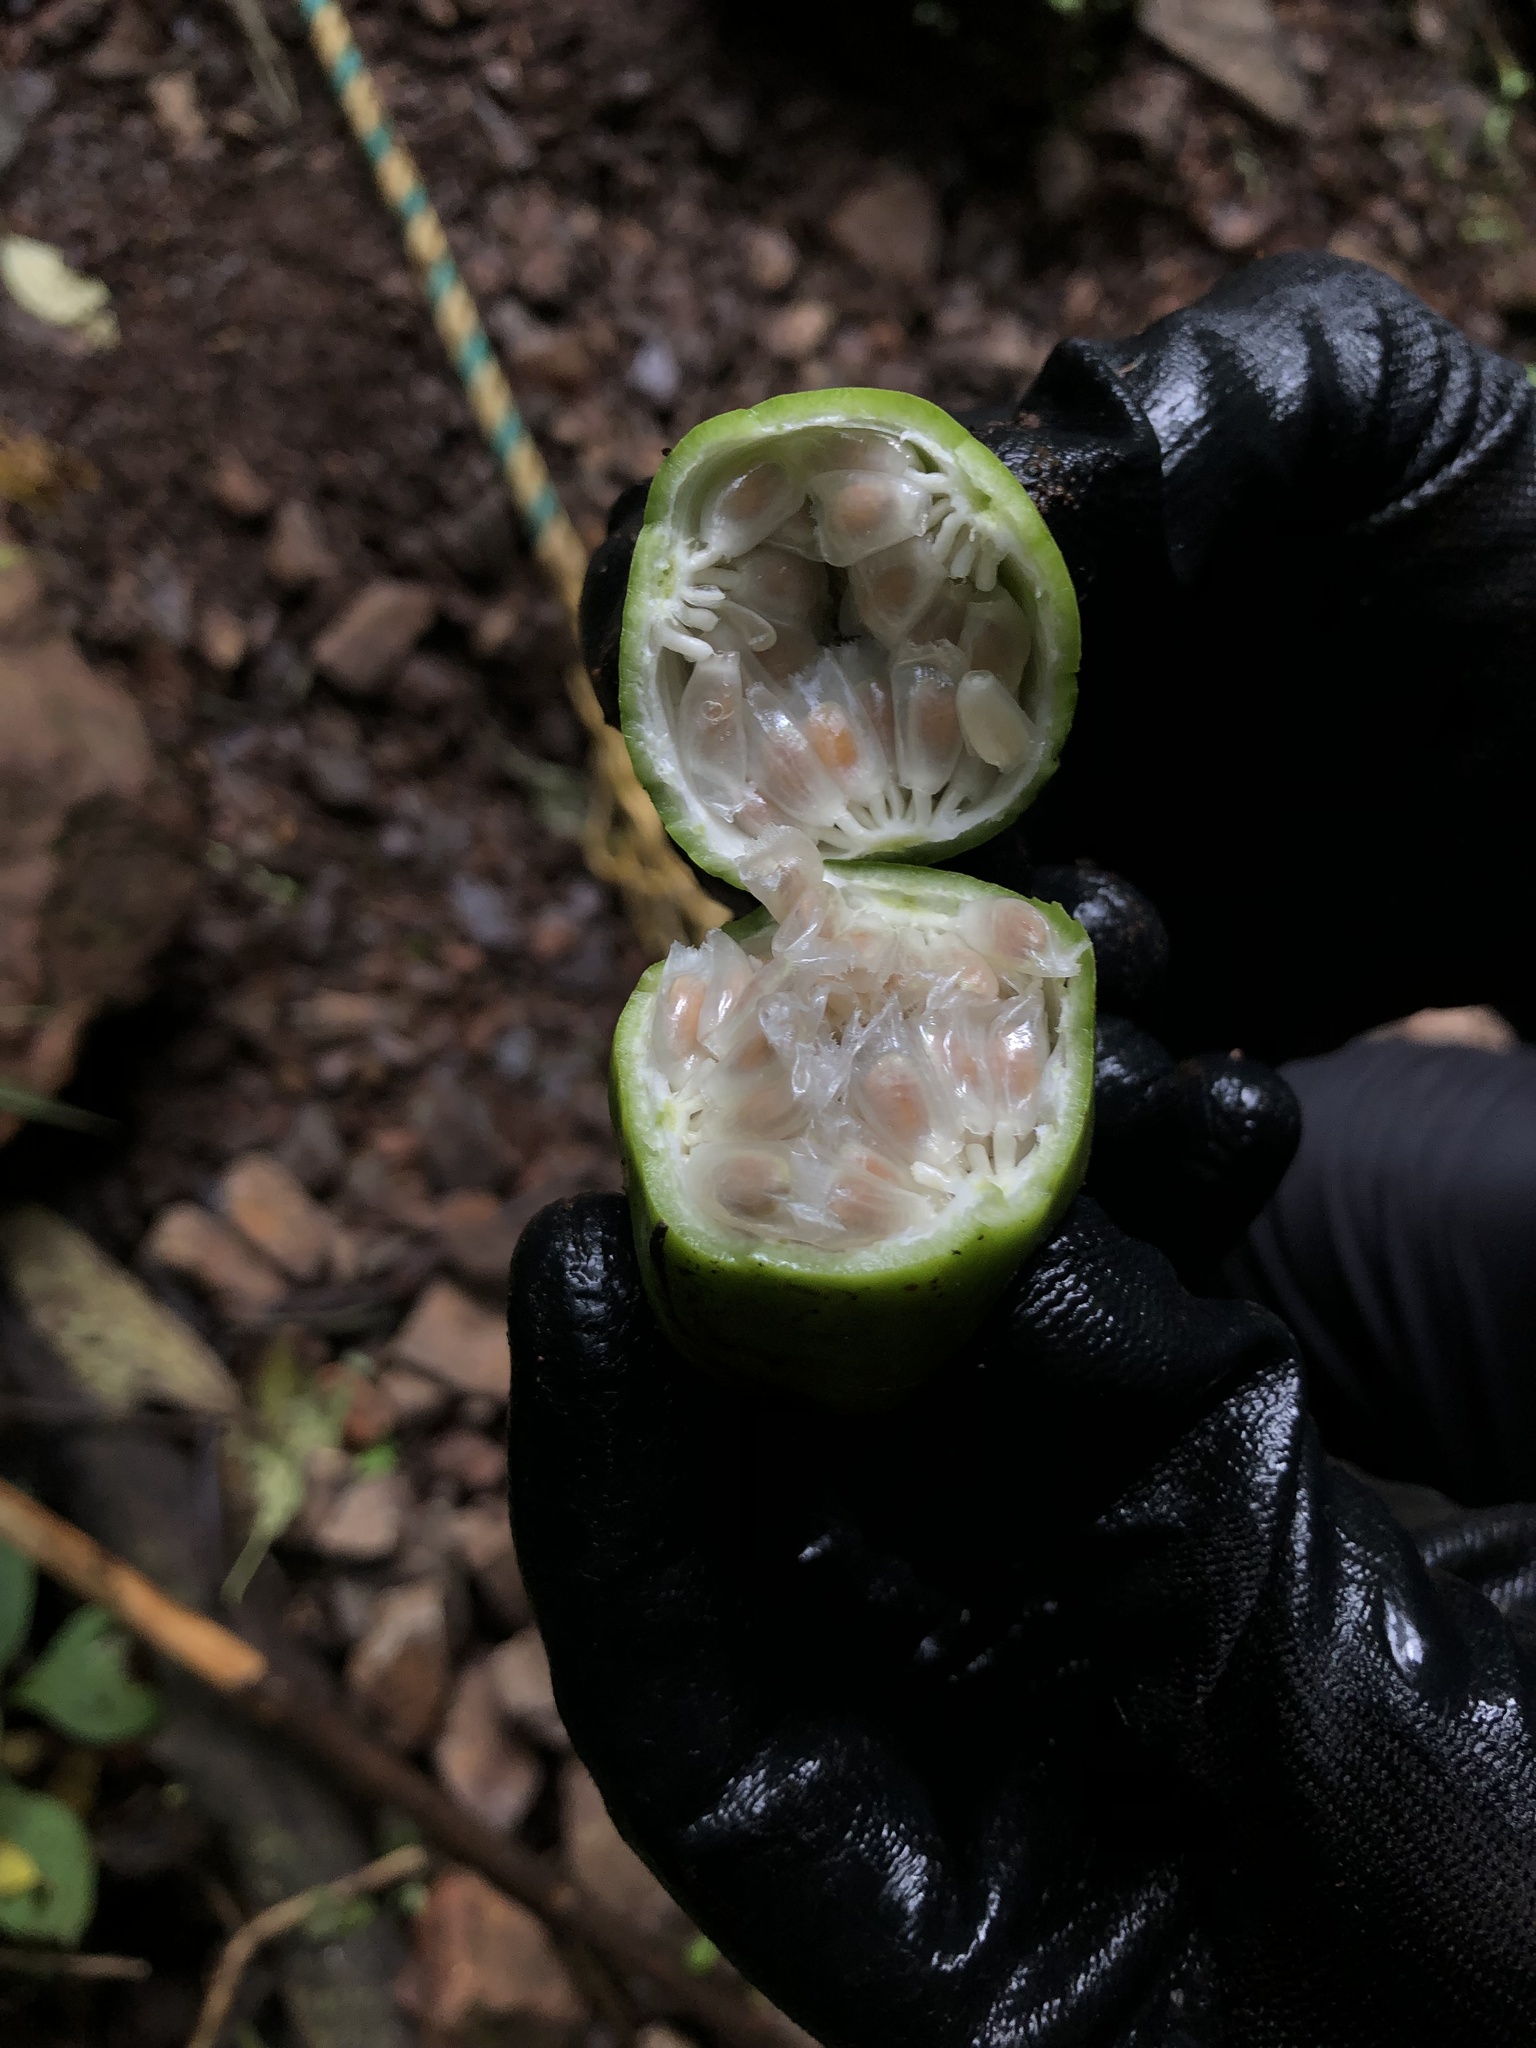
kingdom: Plantae
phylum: Tracheophyta
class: Magnoliopsida
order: Malpighiales
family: Passifloraceae
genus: Passiflora
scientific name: Passiflora antioquiensis
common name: Banana passionfruit
